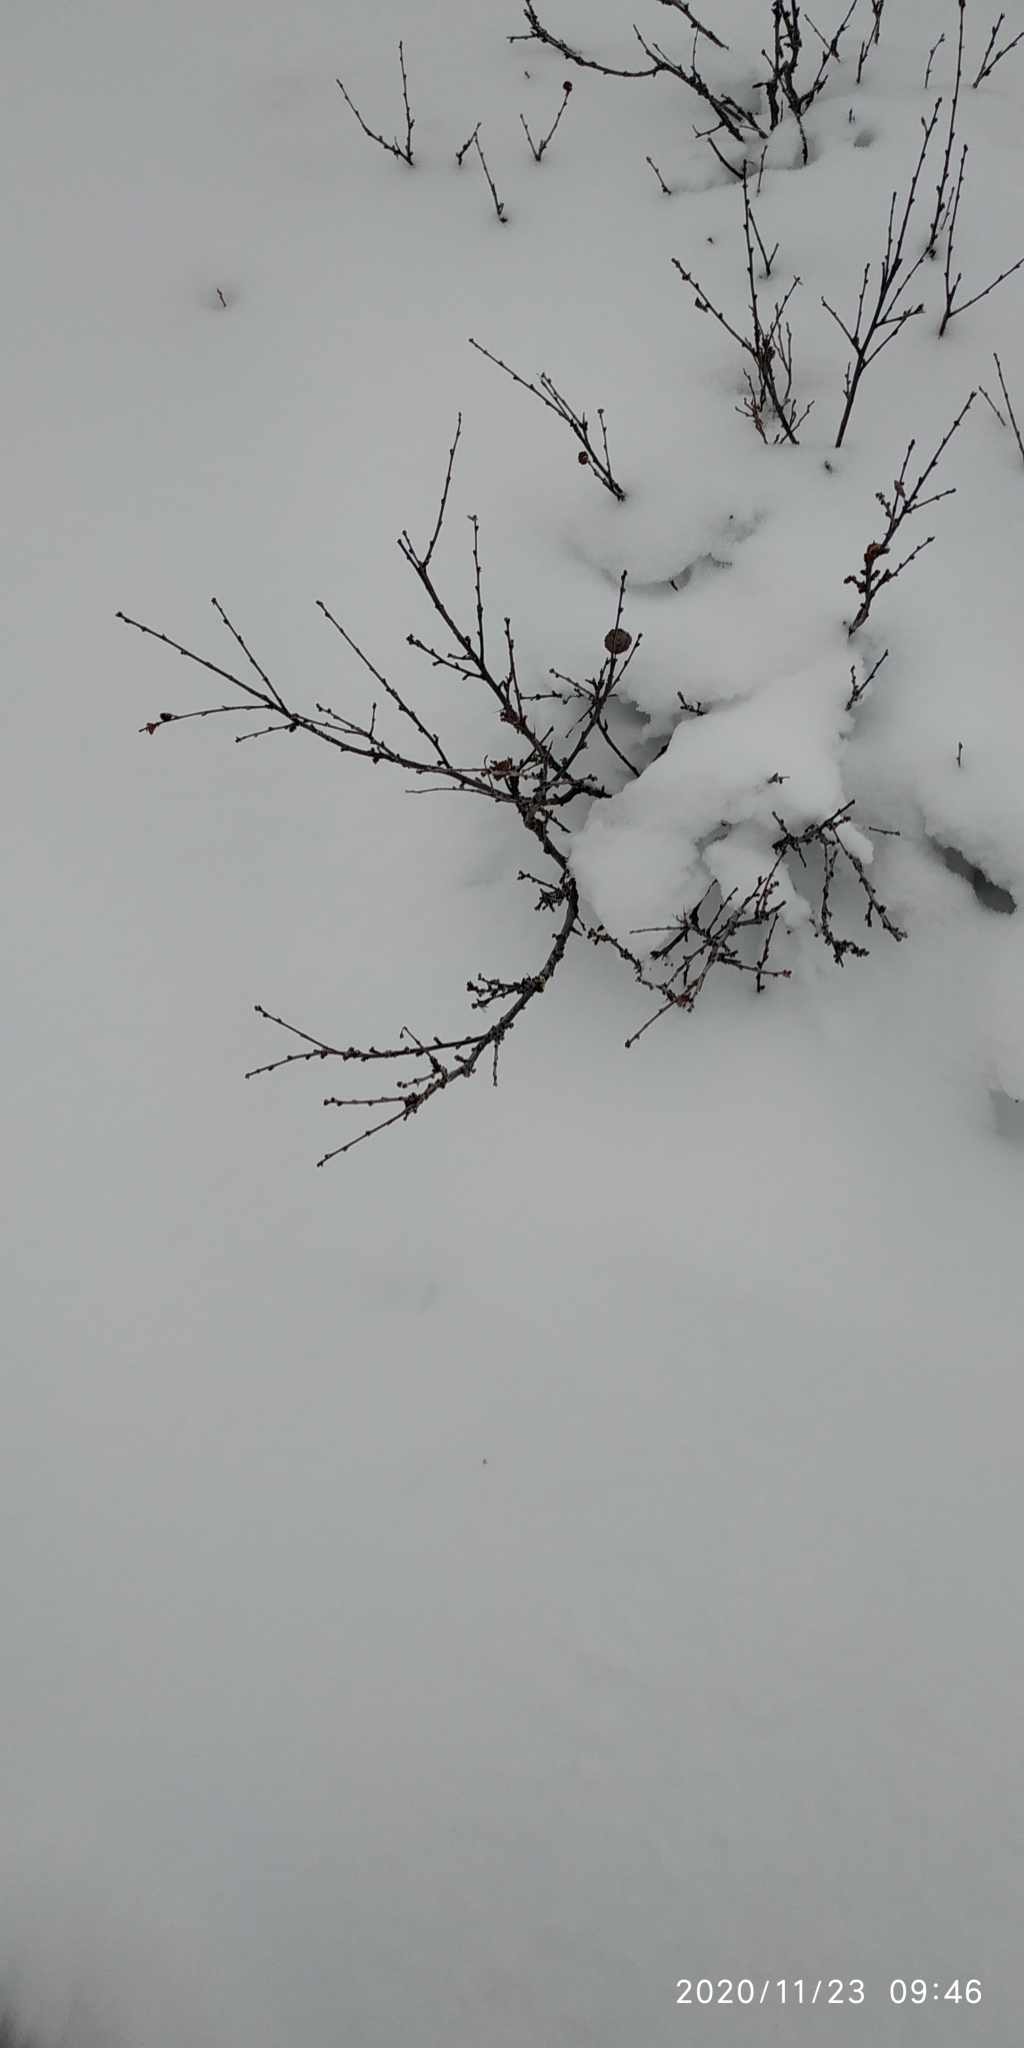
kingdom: Plantae
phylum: Tracheophyta
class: Magnoliopsida
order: Fagales
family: Betulaceae
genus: Betula
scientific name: Betula nana
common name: Arctic dwarf birch
